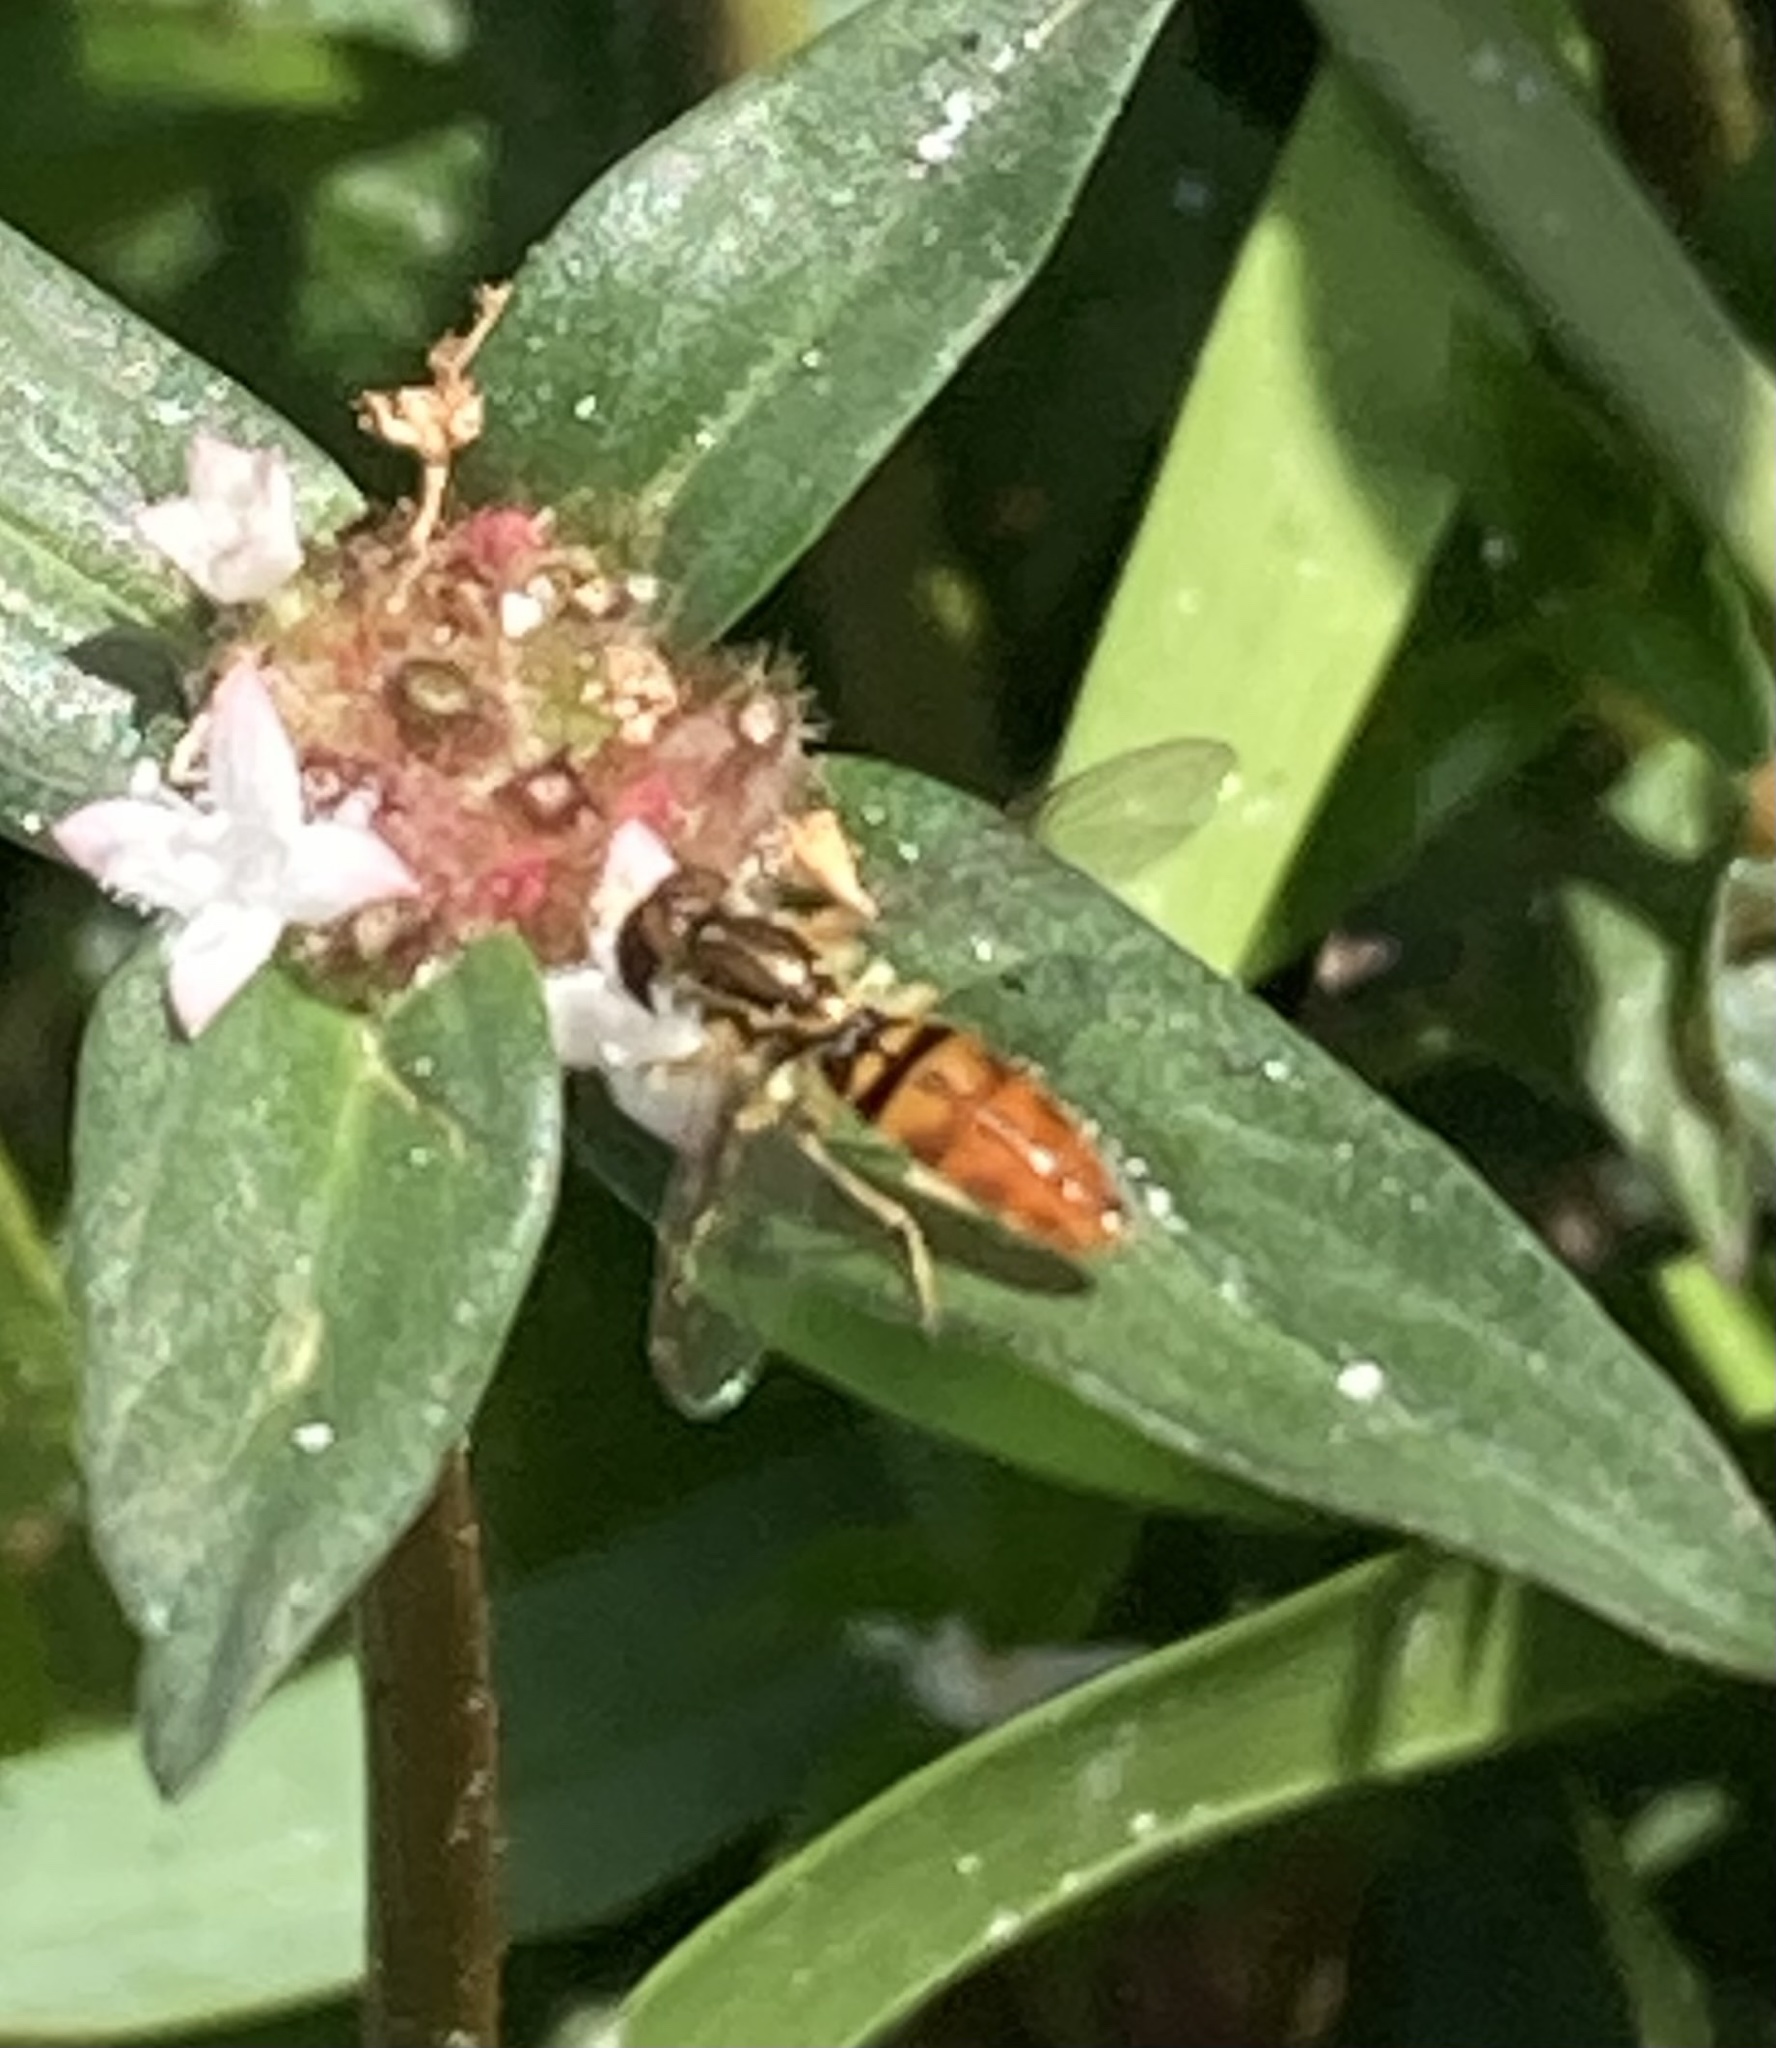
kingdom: Animalia
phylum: Arthropoda
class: Insecta
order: Diptera
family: Syrphidae
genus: Toxomerus
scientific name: Toxomerus floralis
